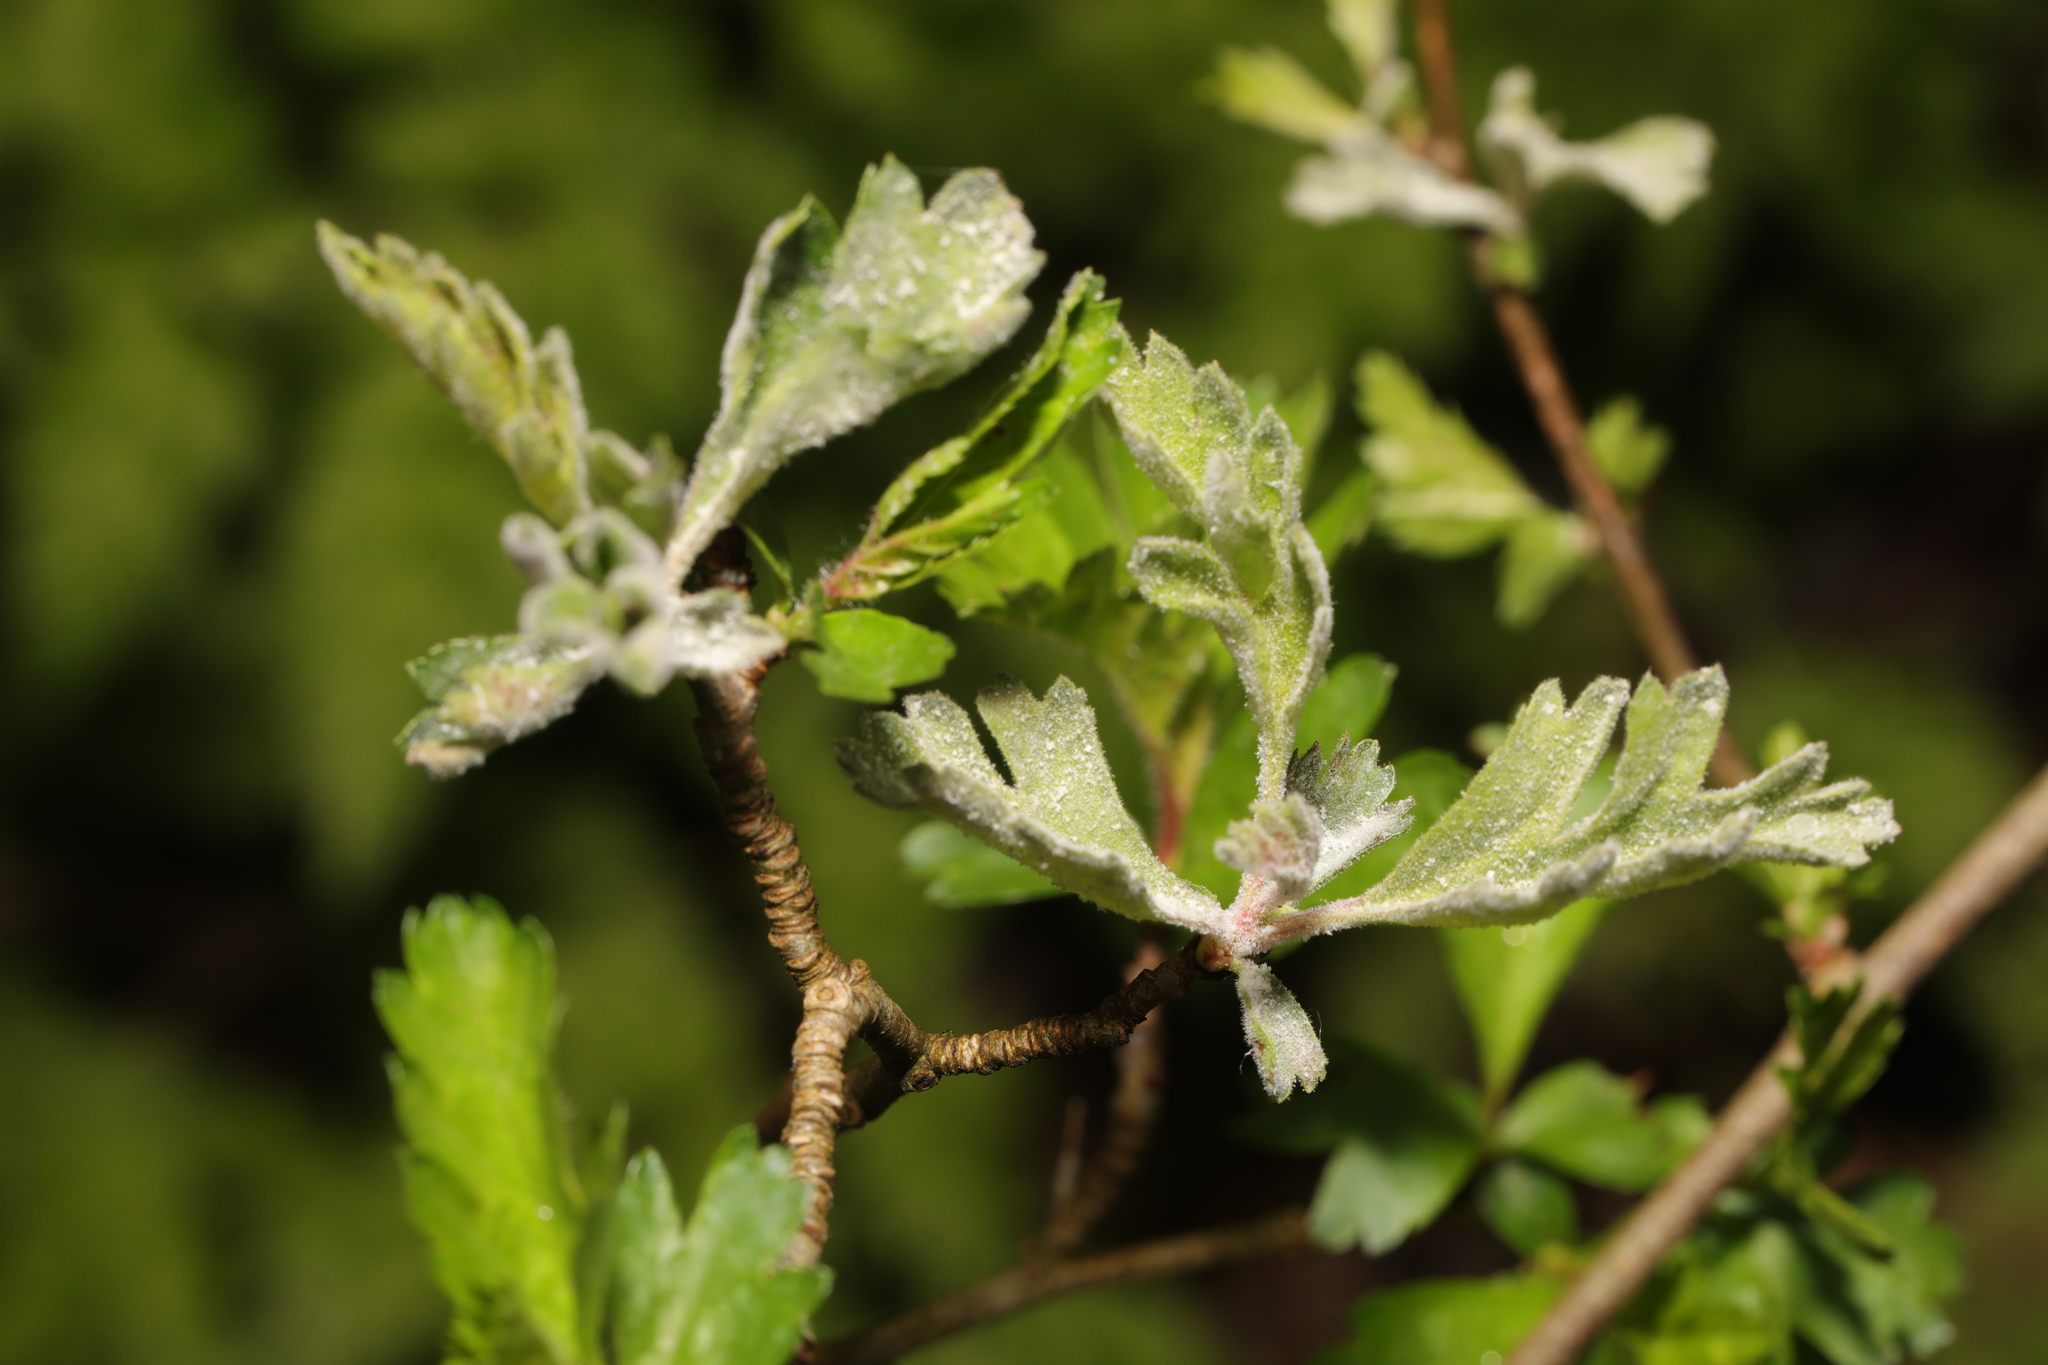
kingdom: Fungi
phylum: Ascomycota
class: Leotiomycetes
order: Helotiales
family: Erysiphaceae
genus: Podosphaera
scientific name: Podosphaera clandestina
